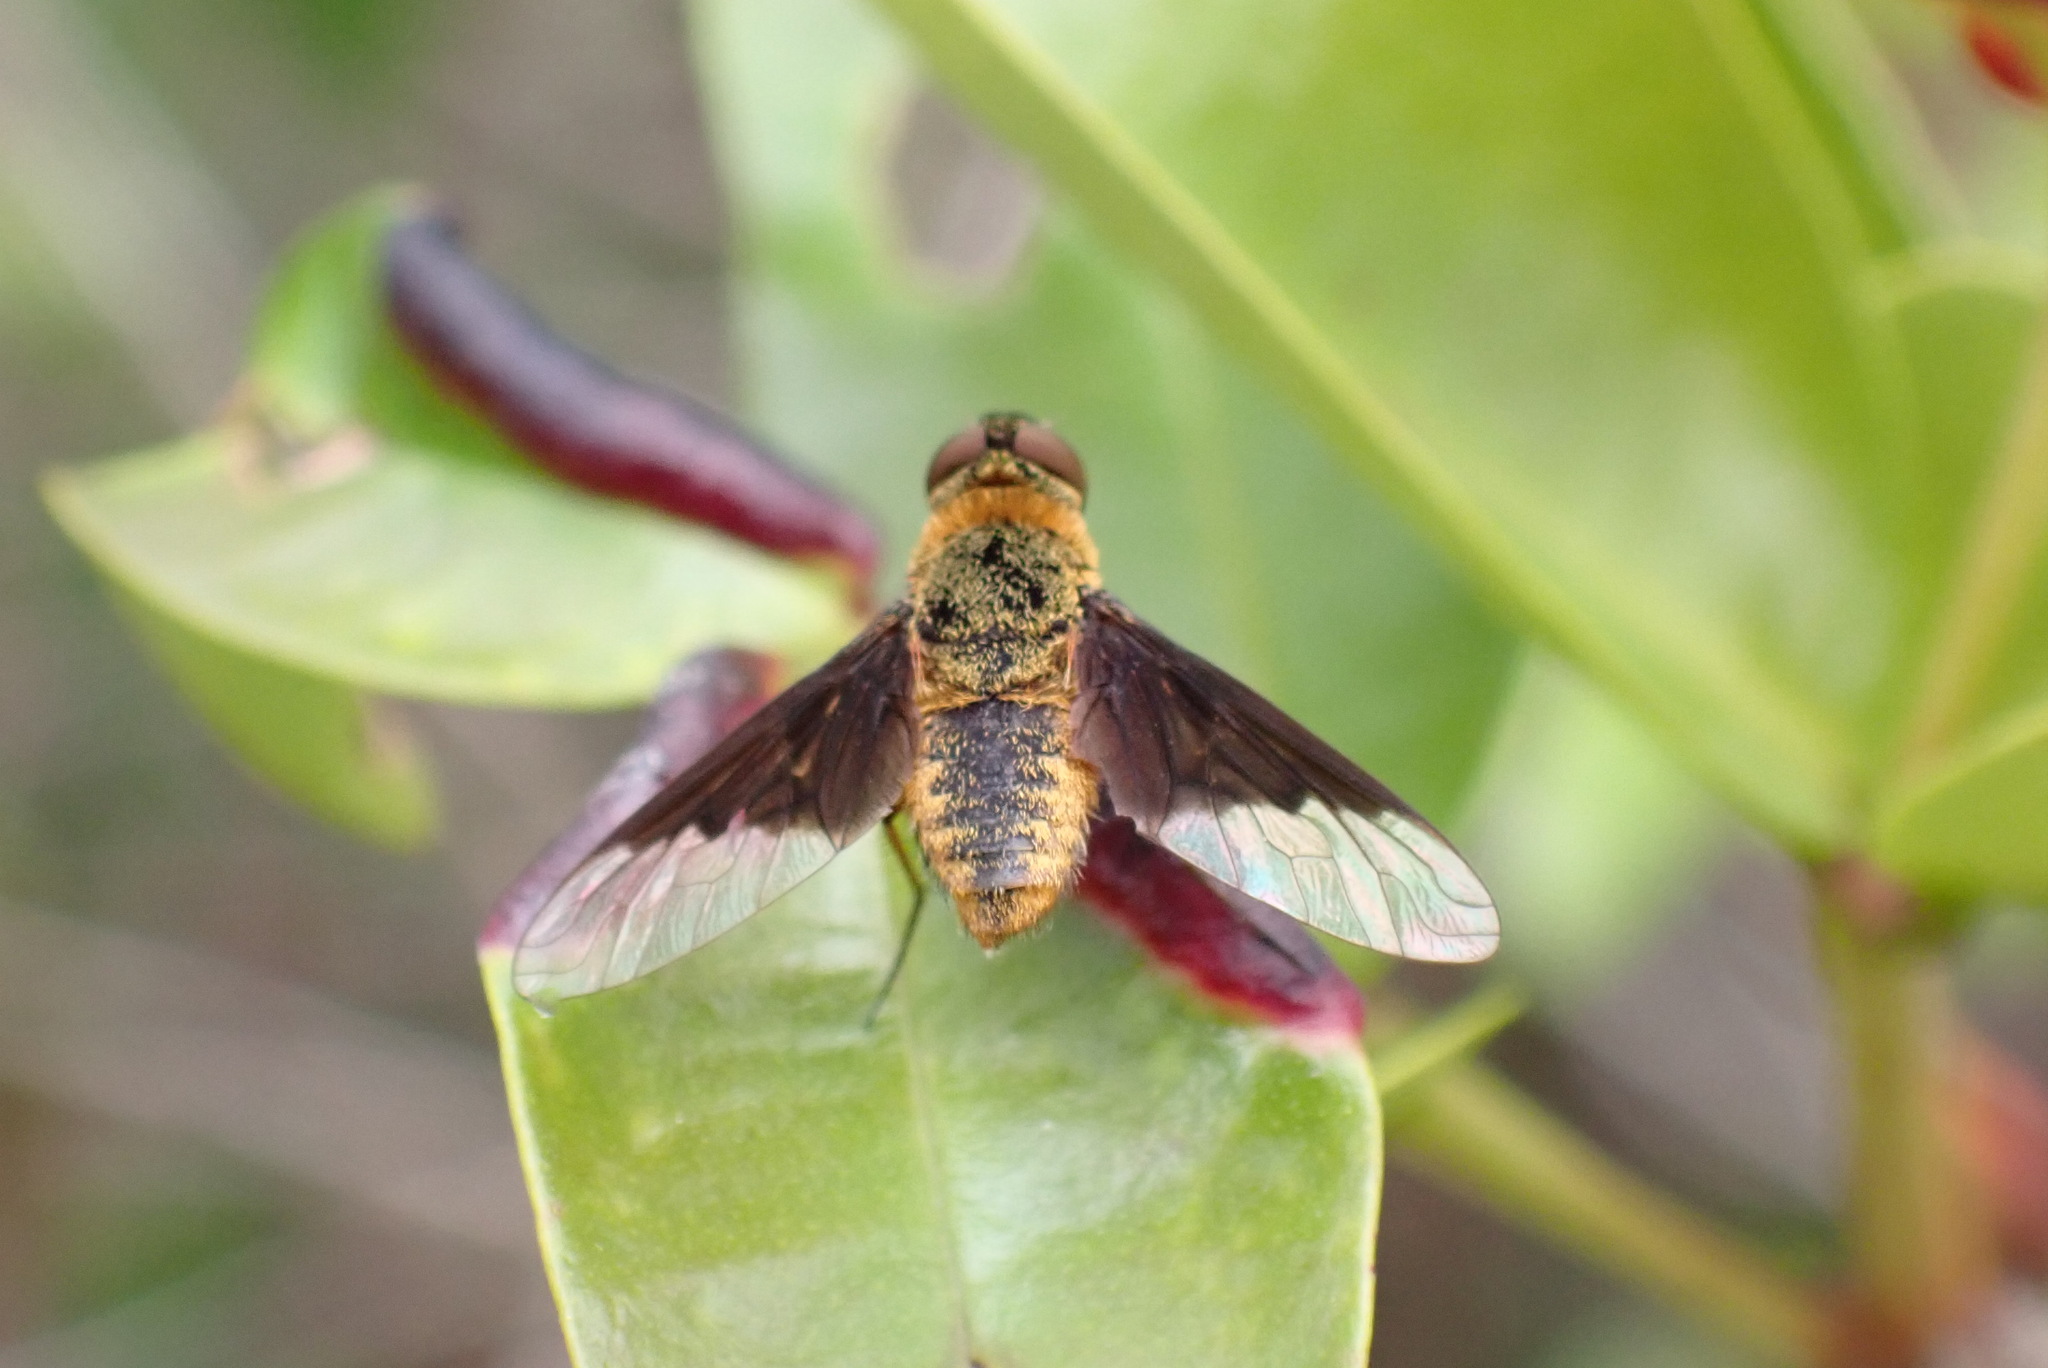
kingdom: Animalia
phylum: Arthropoda
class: Insecta
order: Diptera
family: Bombyliidae
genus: Chrysanthrax
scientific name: Chrysanthrax cypris
